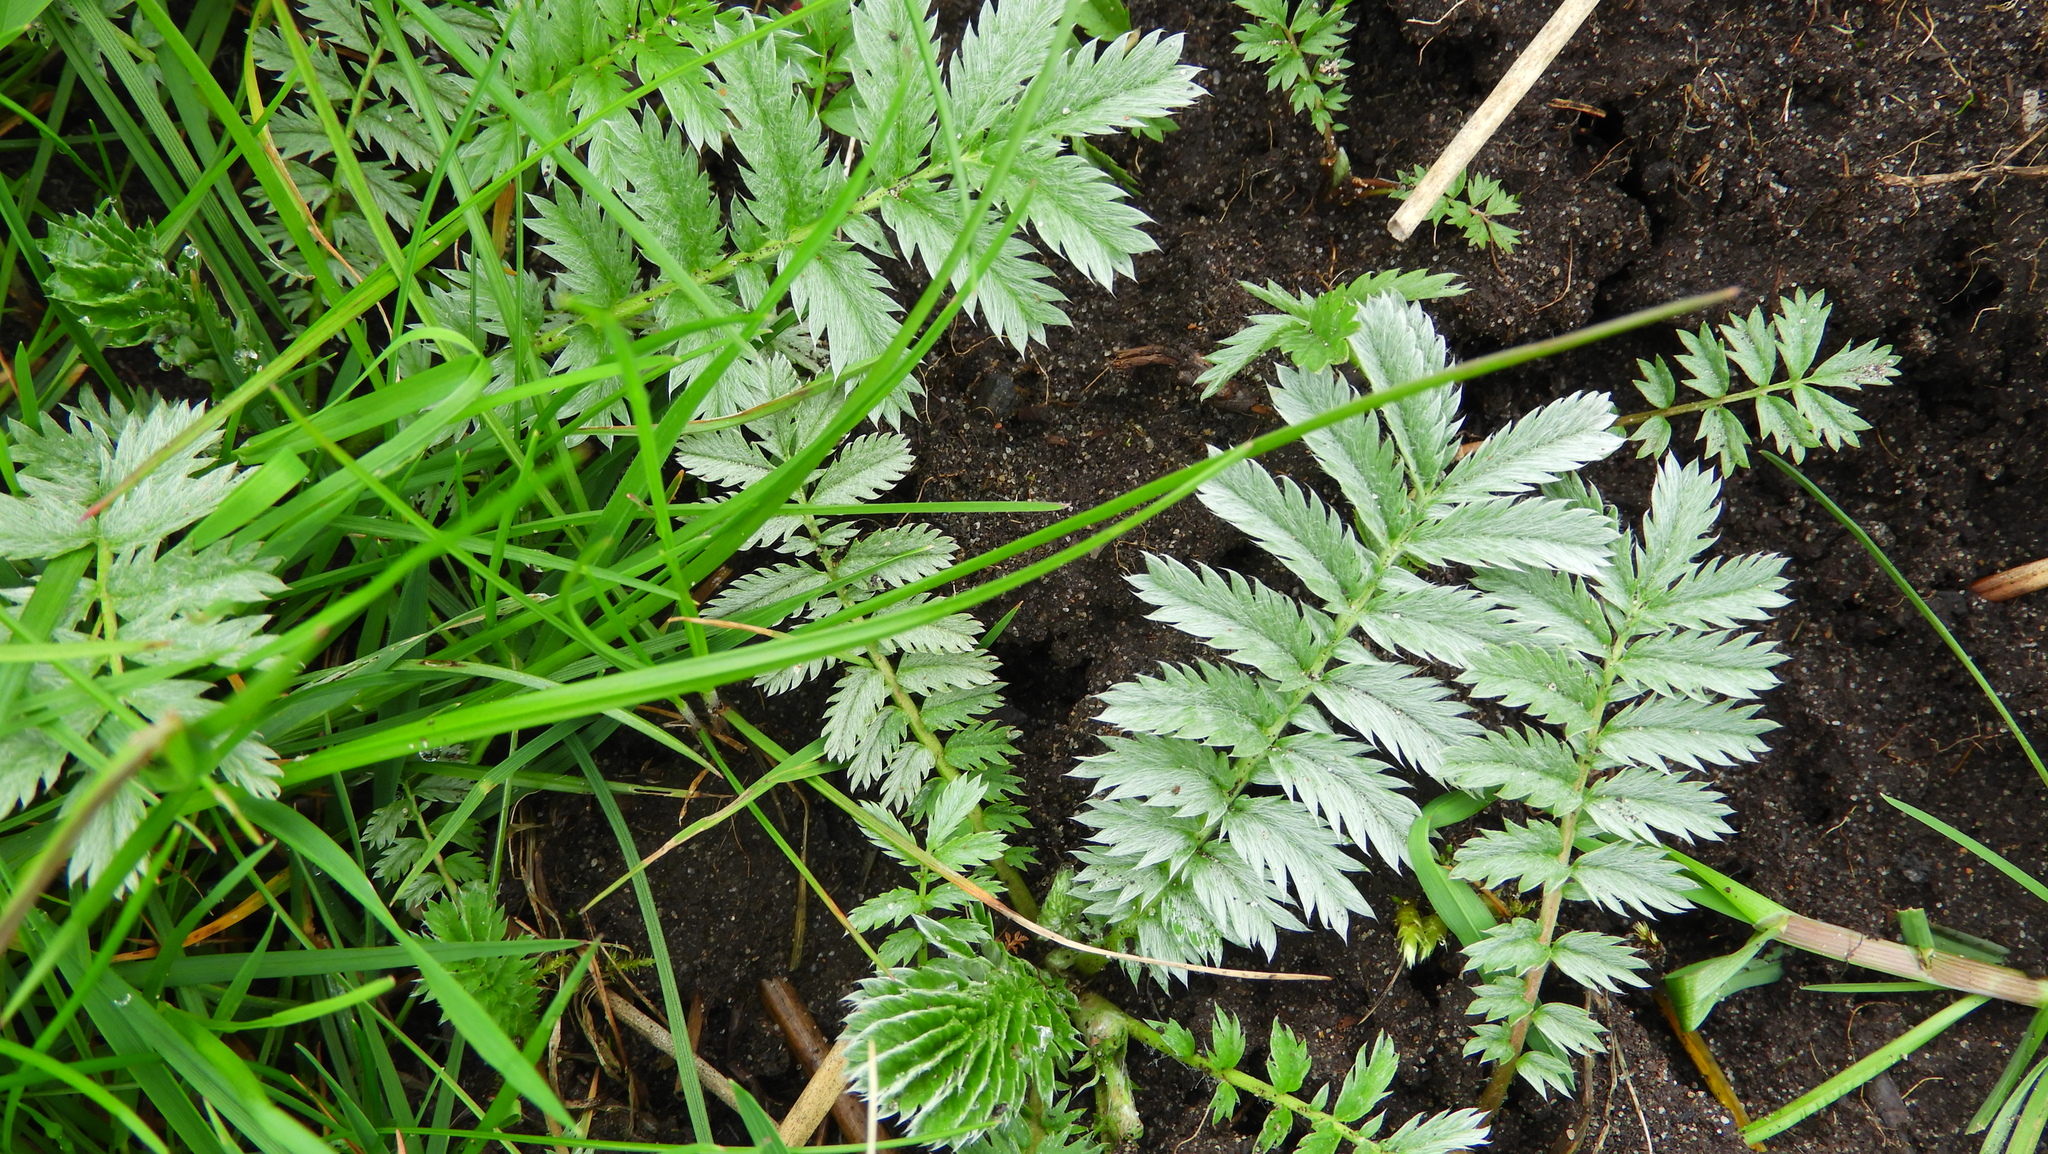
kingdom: Plantae
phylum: Tracheophyta
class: Magnoliopsida
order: Rosales
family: Rosaceae
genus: Argentina
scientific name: Argentina anserina
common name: Common silverweed
